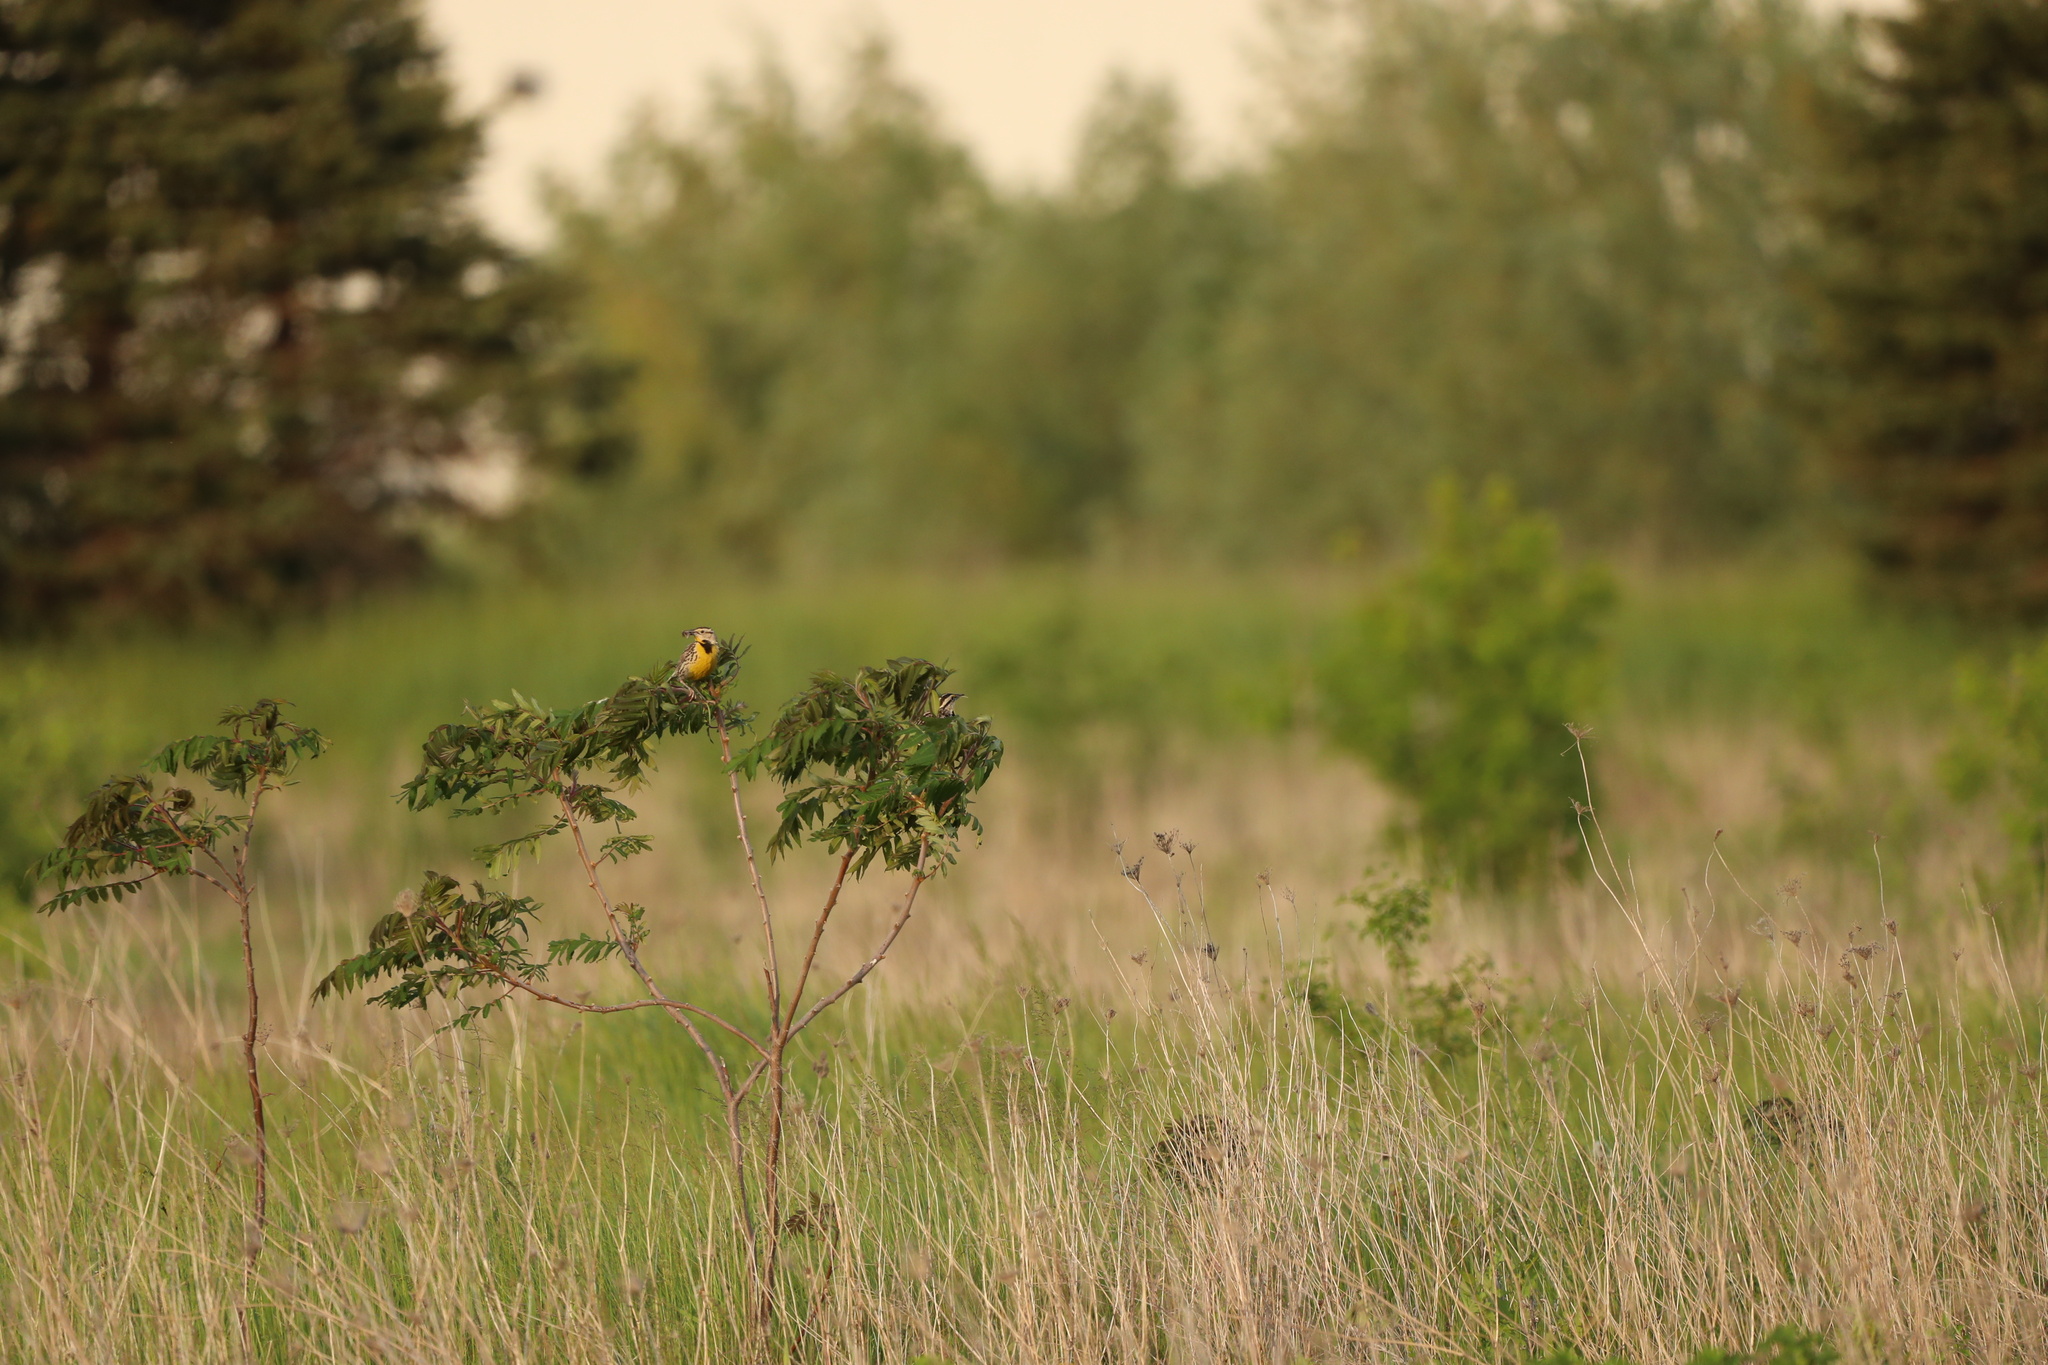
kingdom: Animalia
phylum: Chordata
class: Aves
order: Passeriformes
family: Icteridae
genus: Sturnella
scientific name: Sturnella magna
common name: Eastern meadowlark
